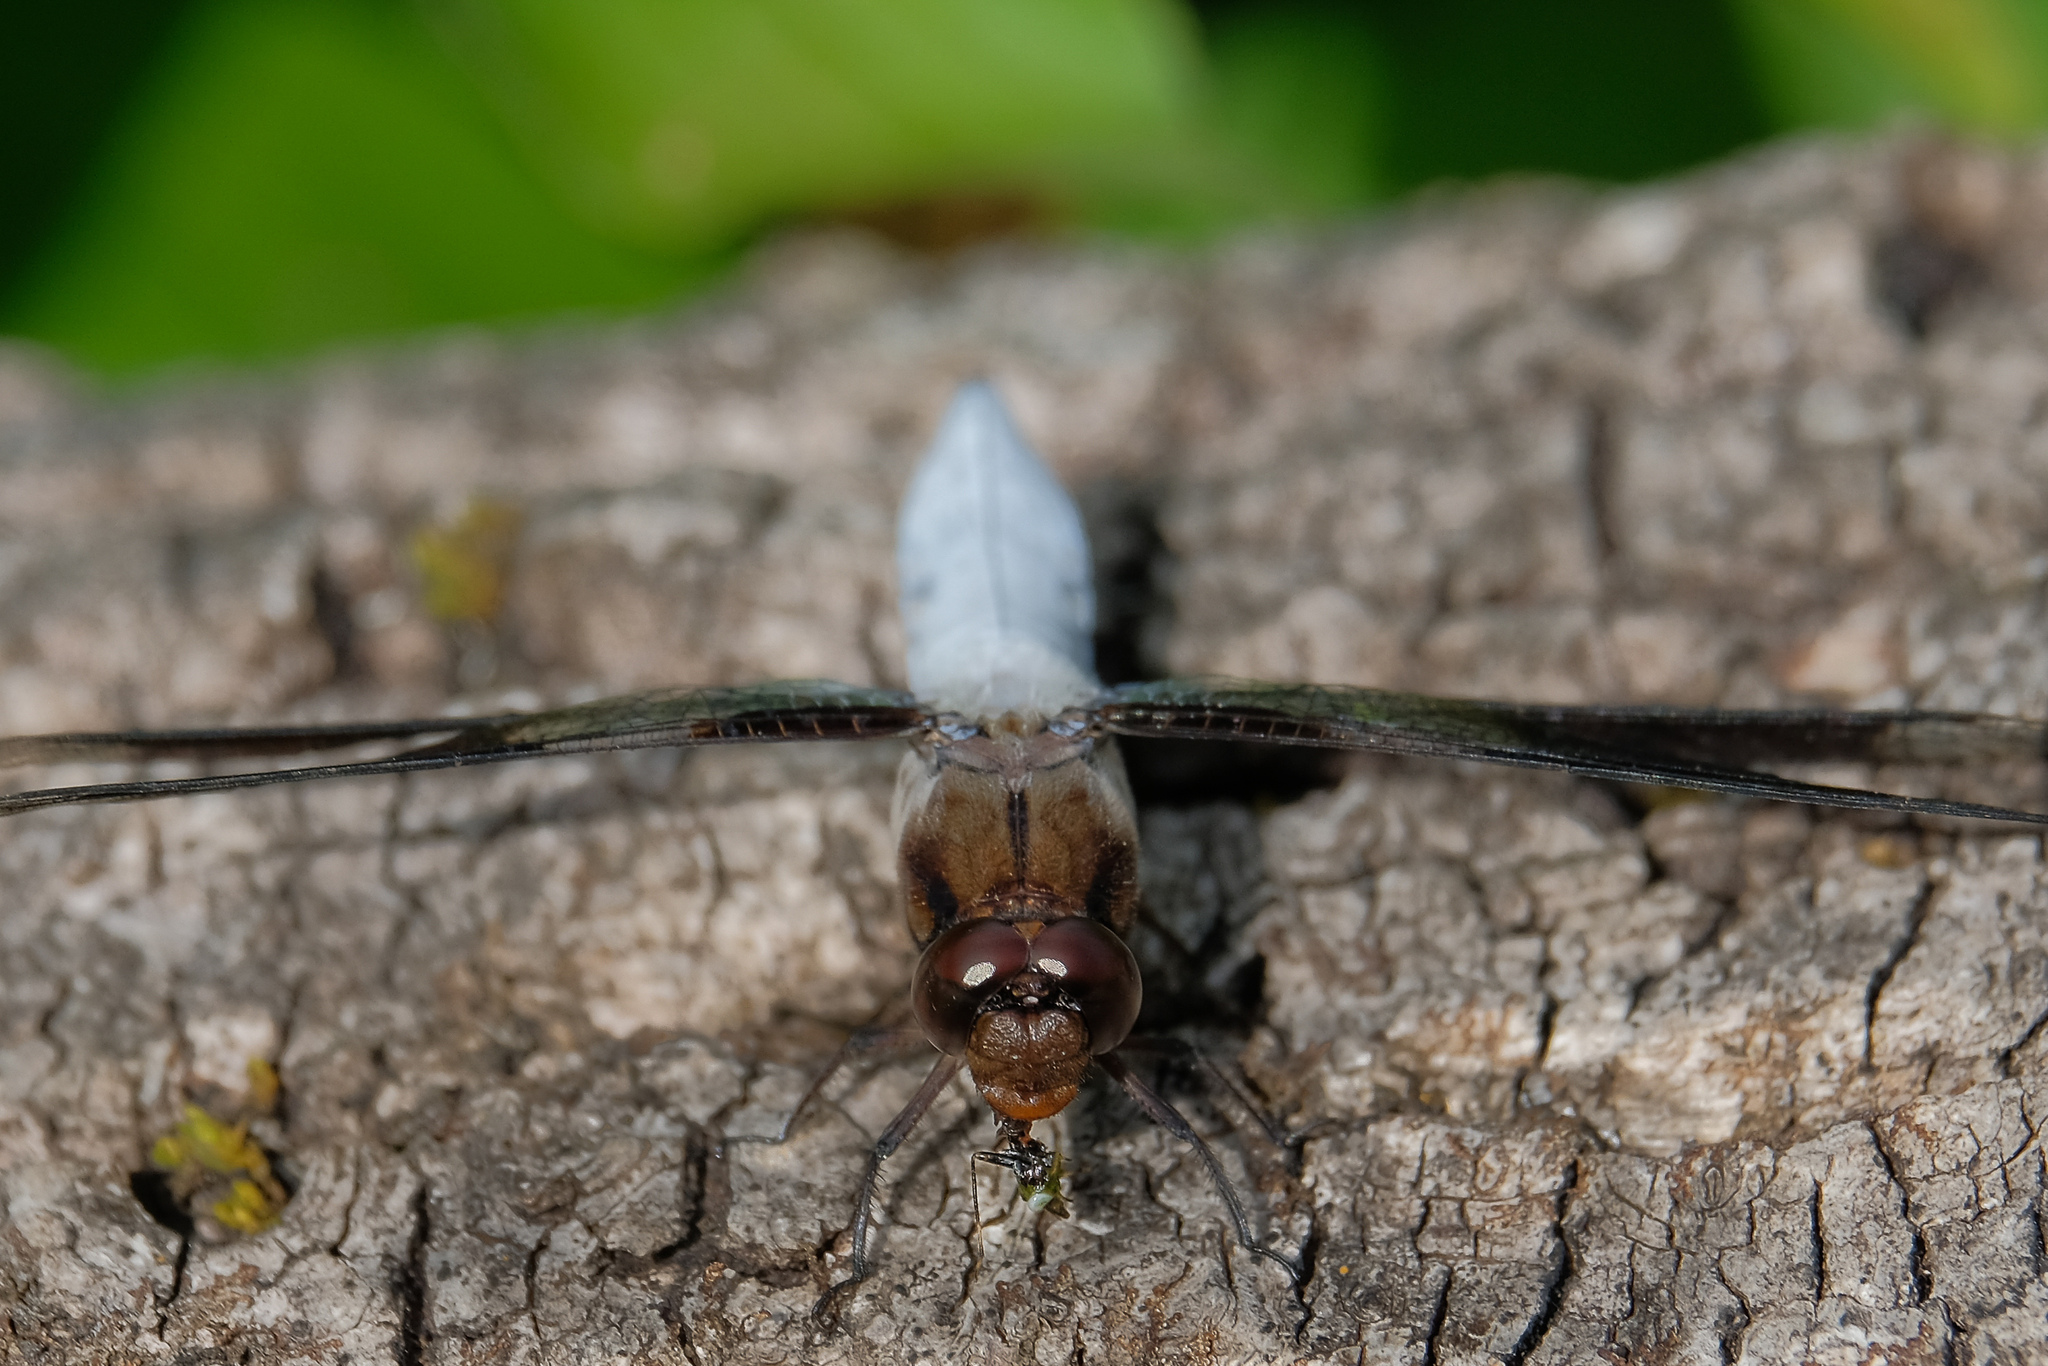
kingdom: Animalia
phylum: Arthropoda
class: Insecta
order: Odonata
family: Libellulidae
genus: Plathemis
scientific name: Plathemis lydia
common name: Common whitetail
